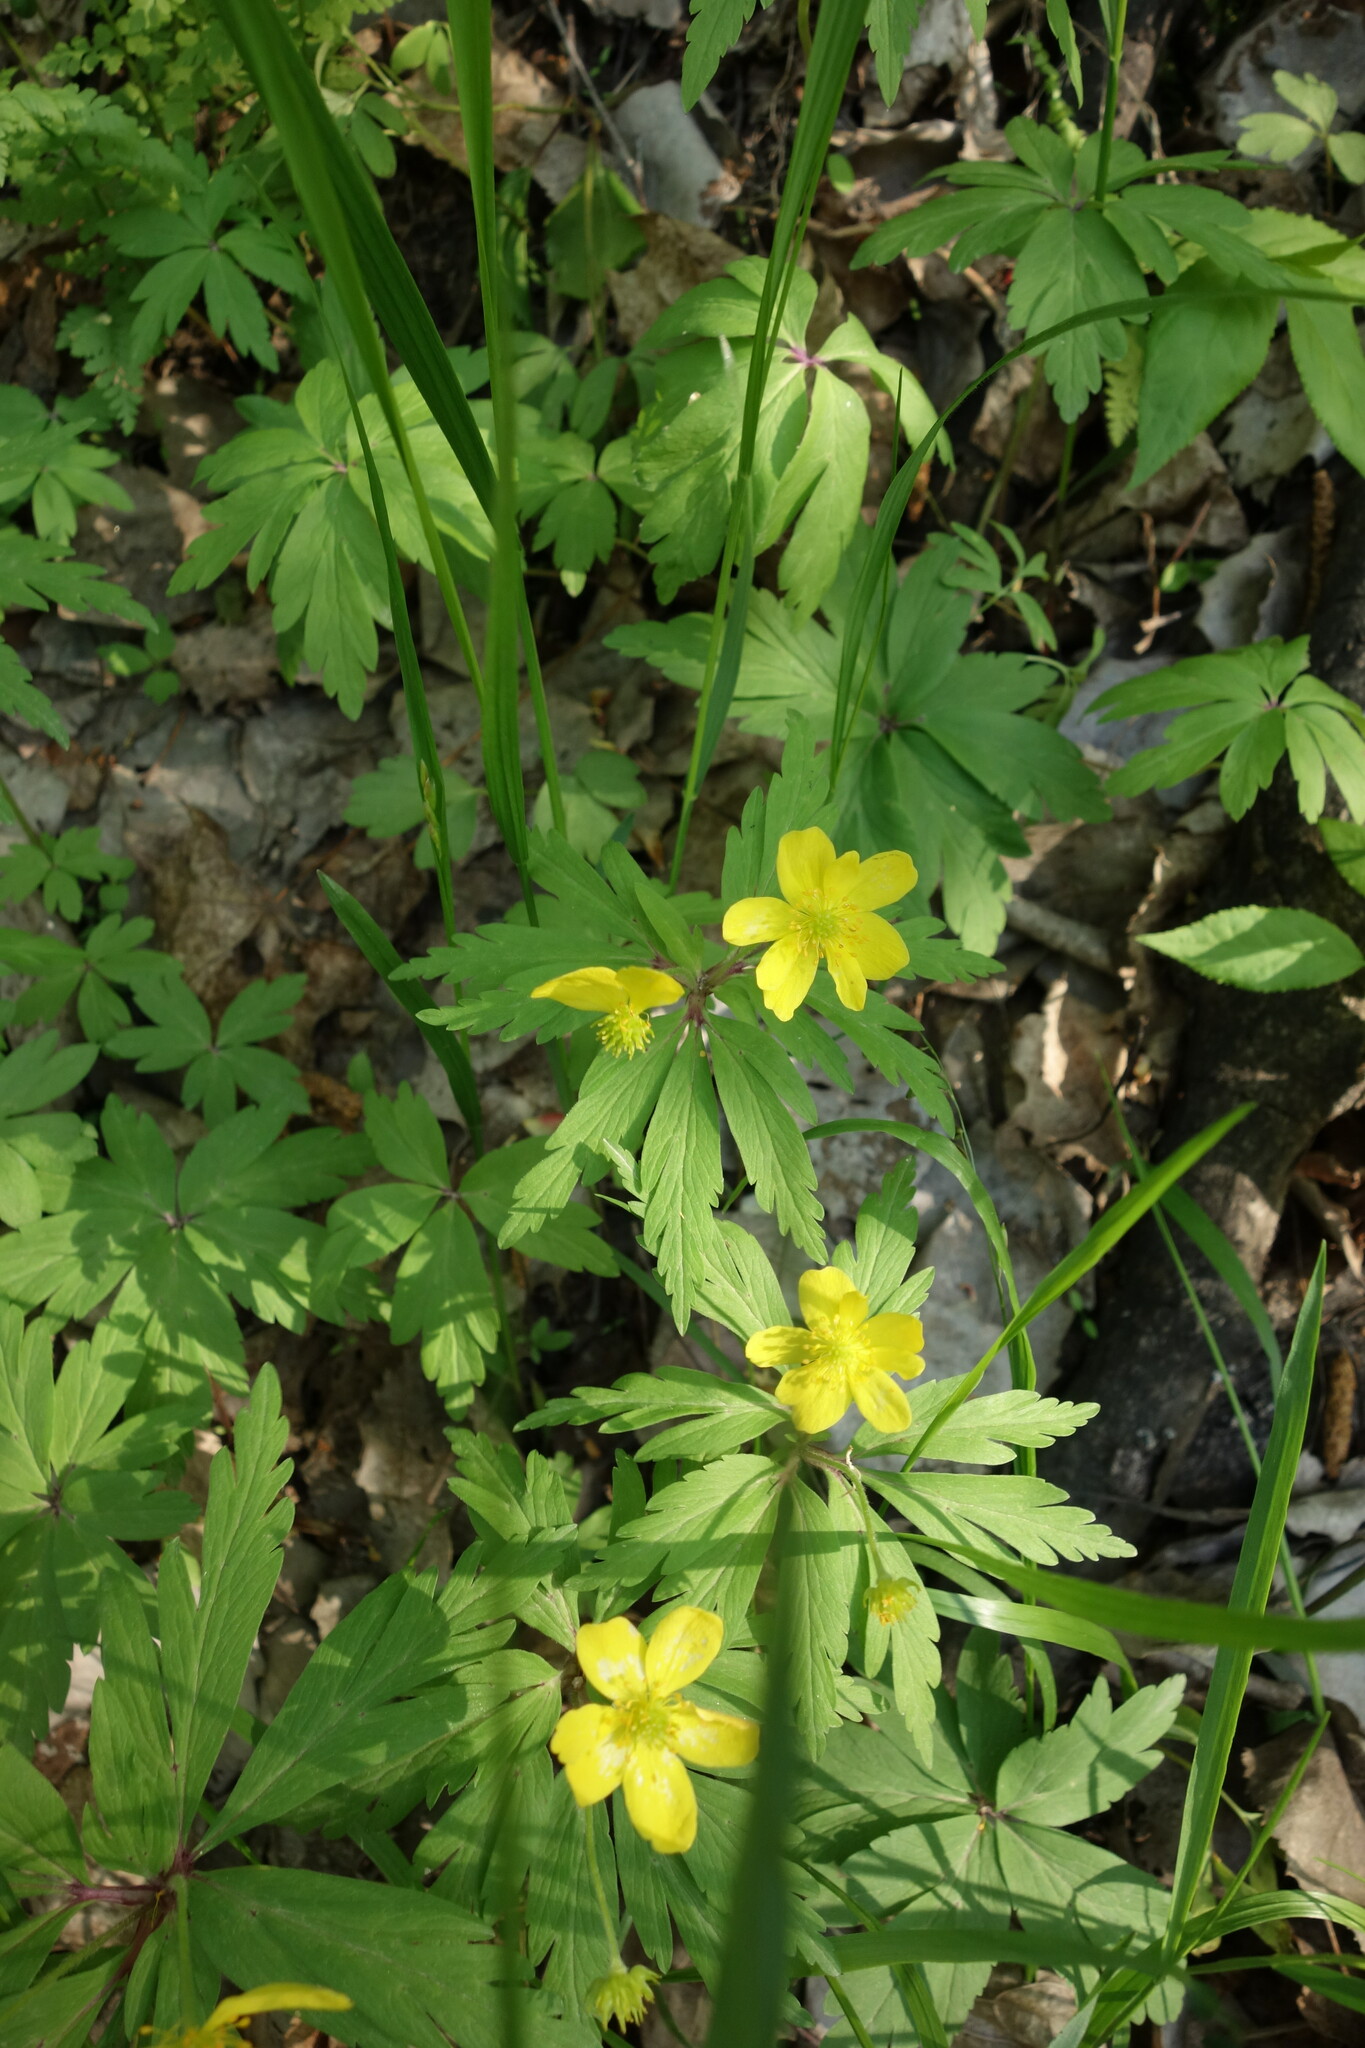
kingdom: Plantae
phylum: Tracheophyta
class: Magnoliopsida
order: Ranunculales
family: Ranunculaceae
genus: Anemone
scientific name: Anemone ranunculoides
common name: Yellow anemone
